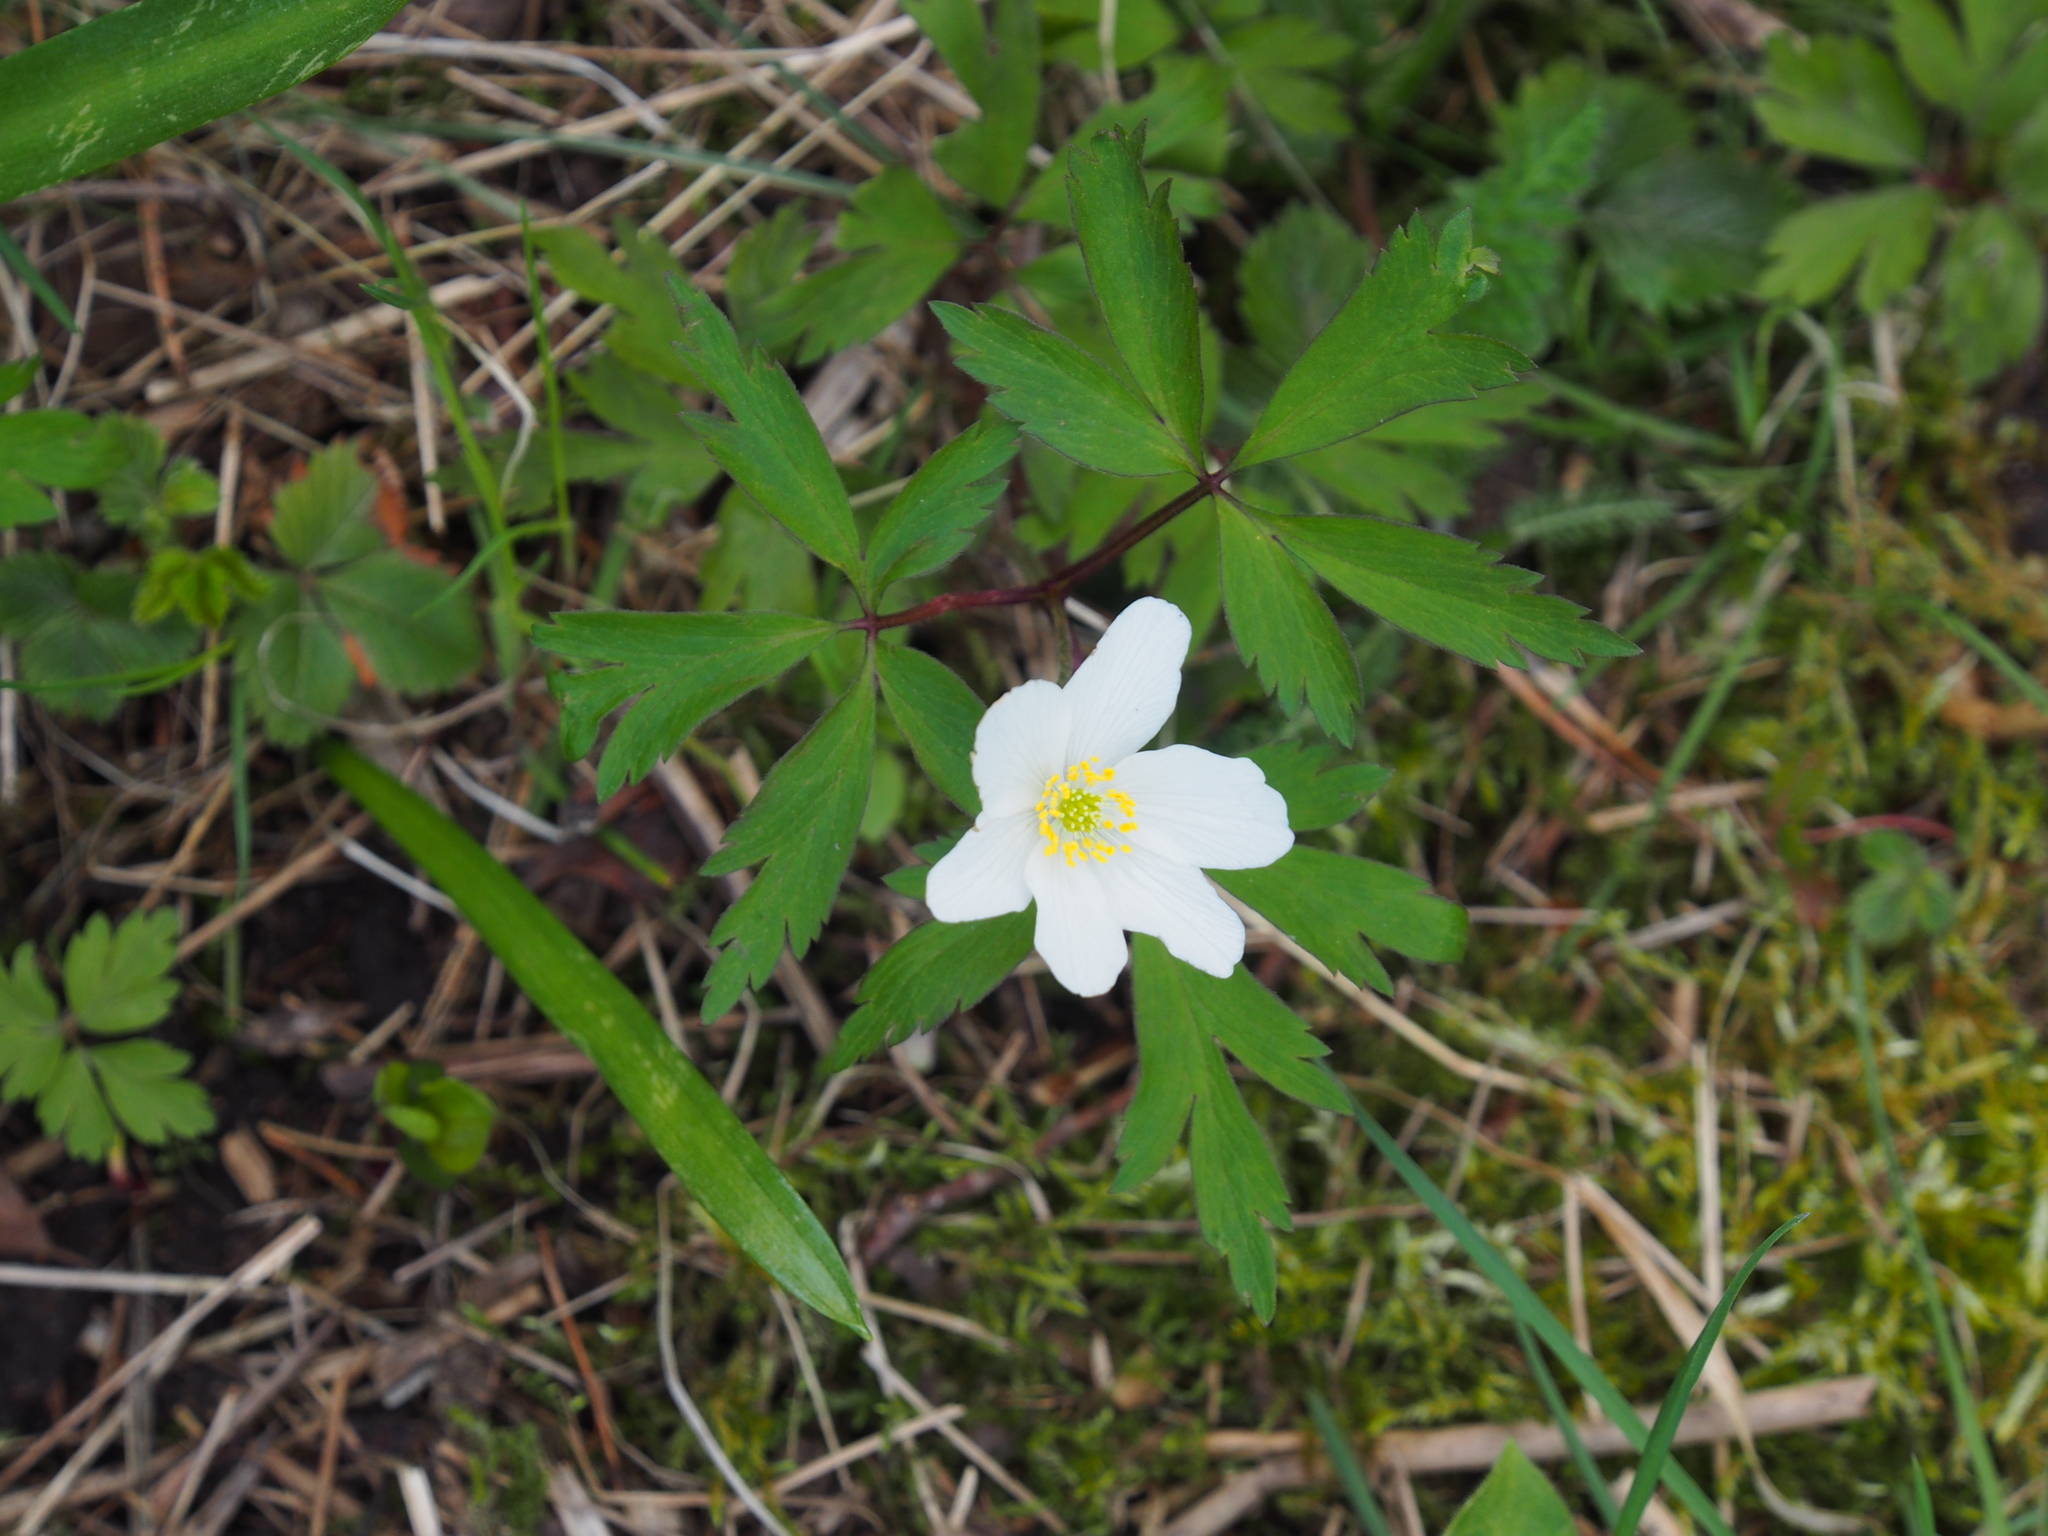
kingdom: Plantae
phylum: Tracheophyta
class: Magnoliopsida
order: Ranunculales
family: Ranunculaceae
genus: Anemone
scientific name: Anemone nemorosa
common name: Wood anemone
